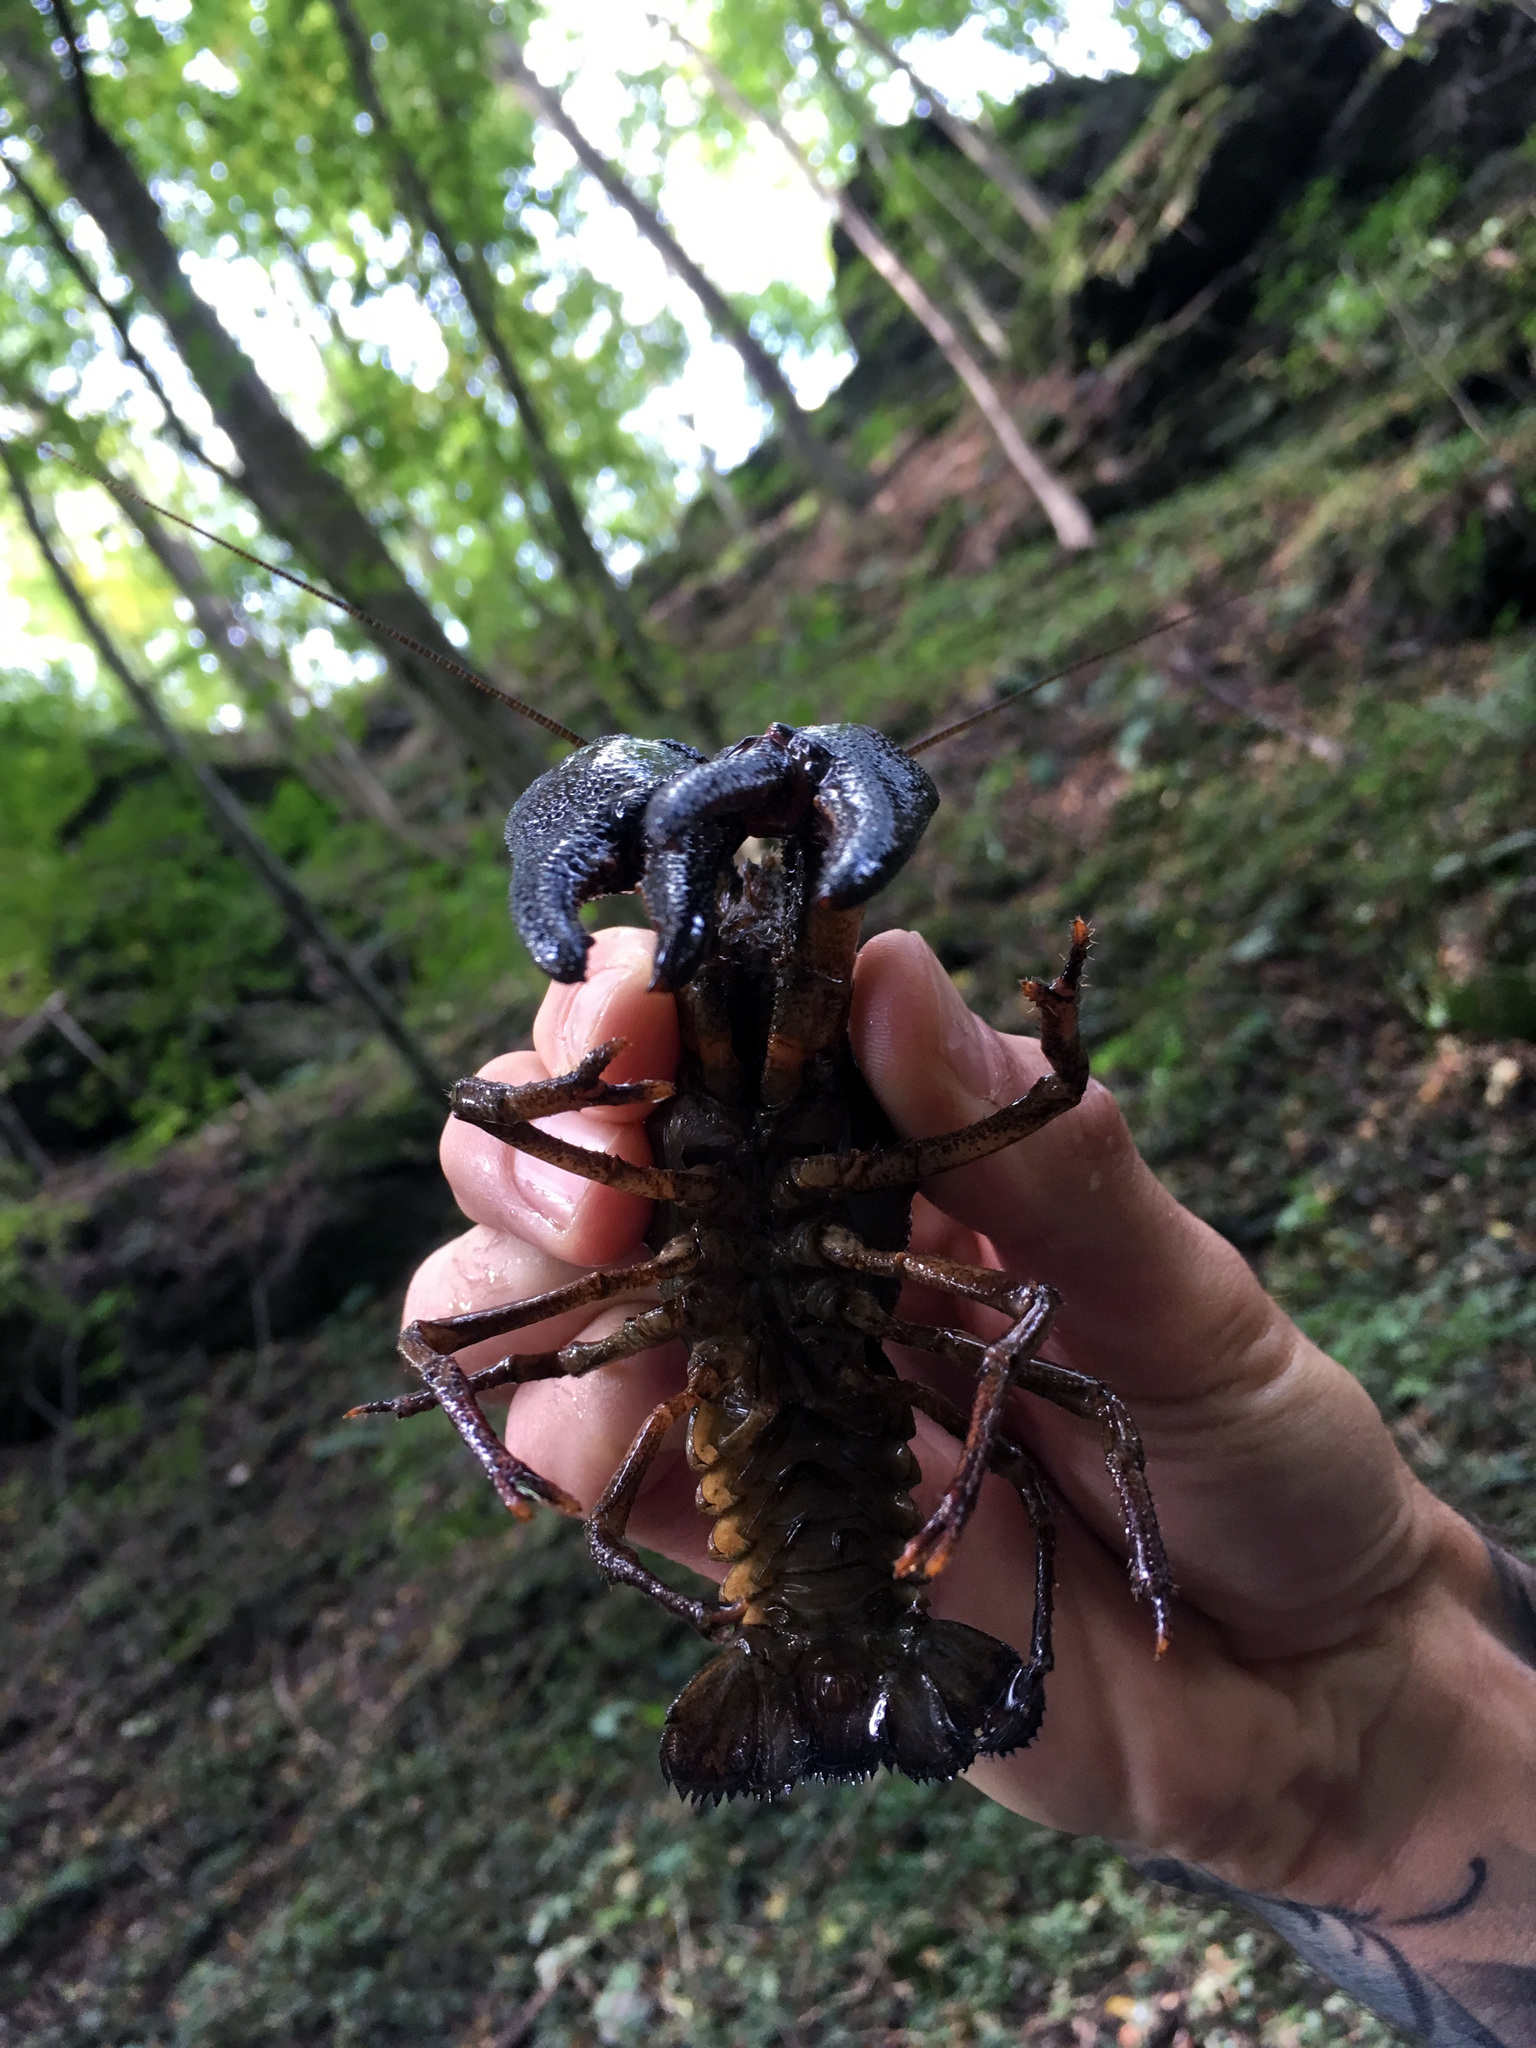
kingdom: Animalia
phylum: Arthropoda
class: Malacostraca
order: Decapoda
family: Astacidae
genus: Astacus
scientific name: Astacus astacus
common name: Noble crayfish
